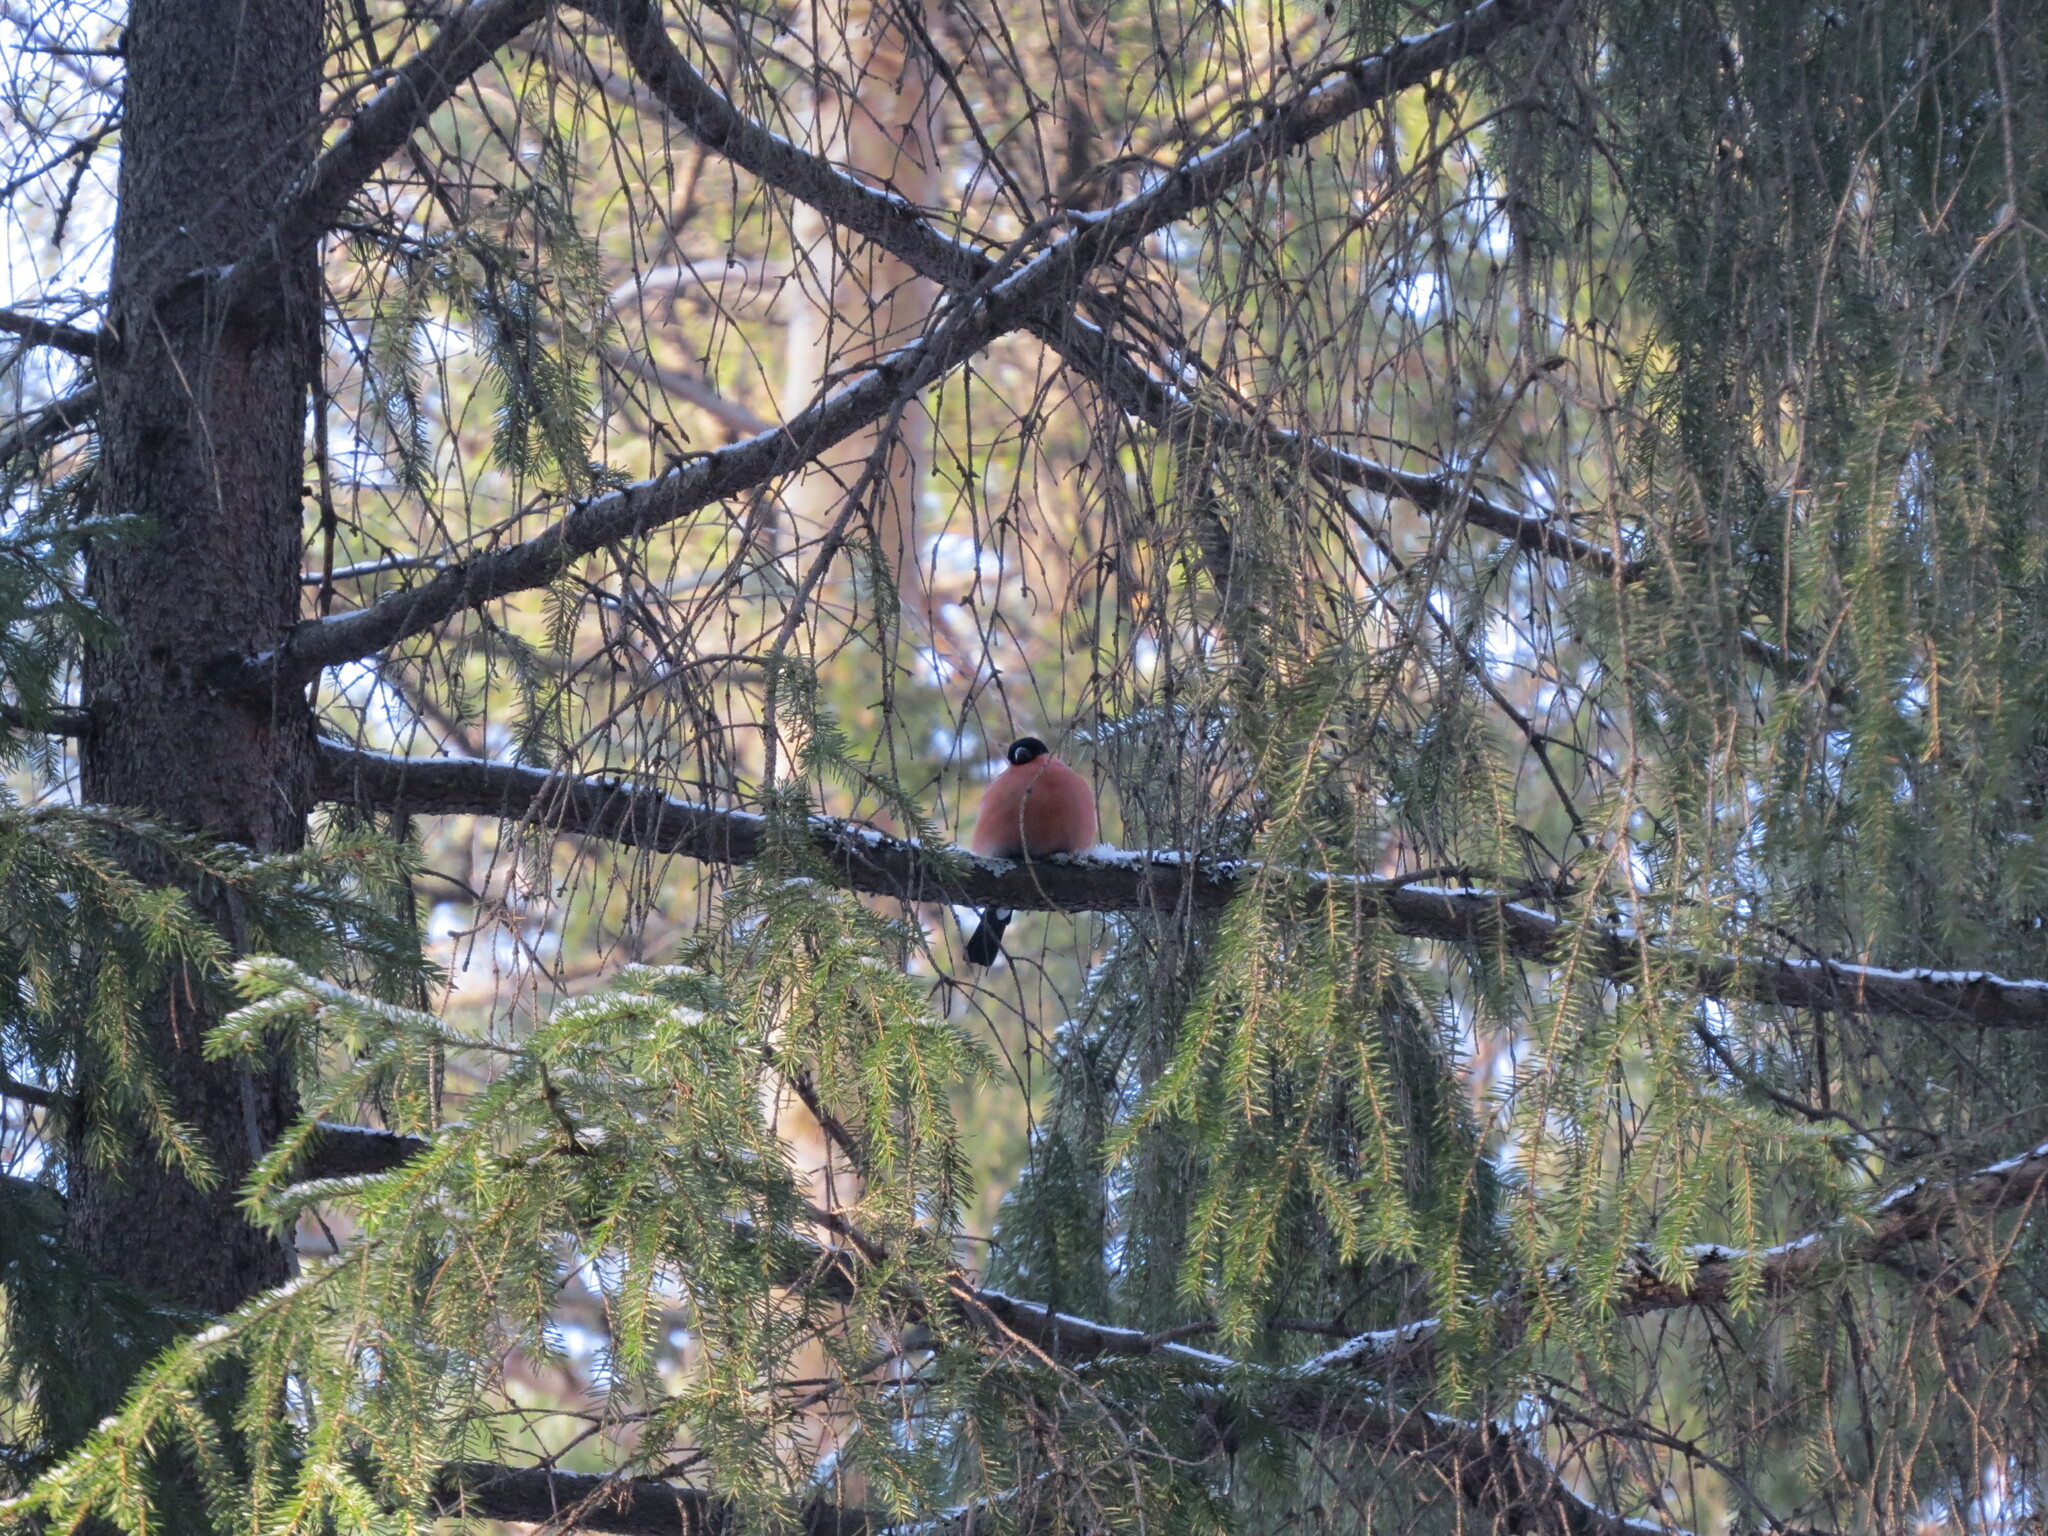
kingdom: Animalia
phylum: Chordata
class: Aves
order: Passeriformes
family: Fringillidae
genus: Pyrrhula
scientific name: Pyrrhula pyrrhula
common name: Eurasian bullfinch
